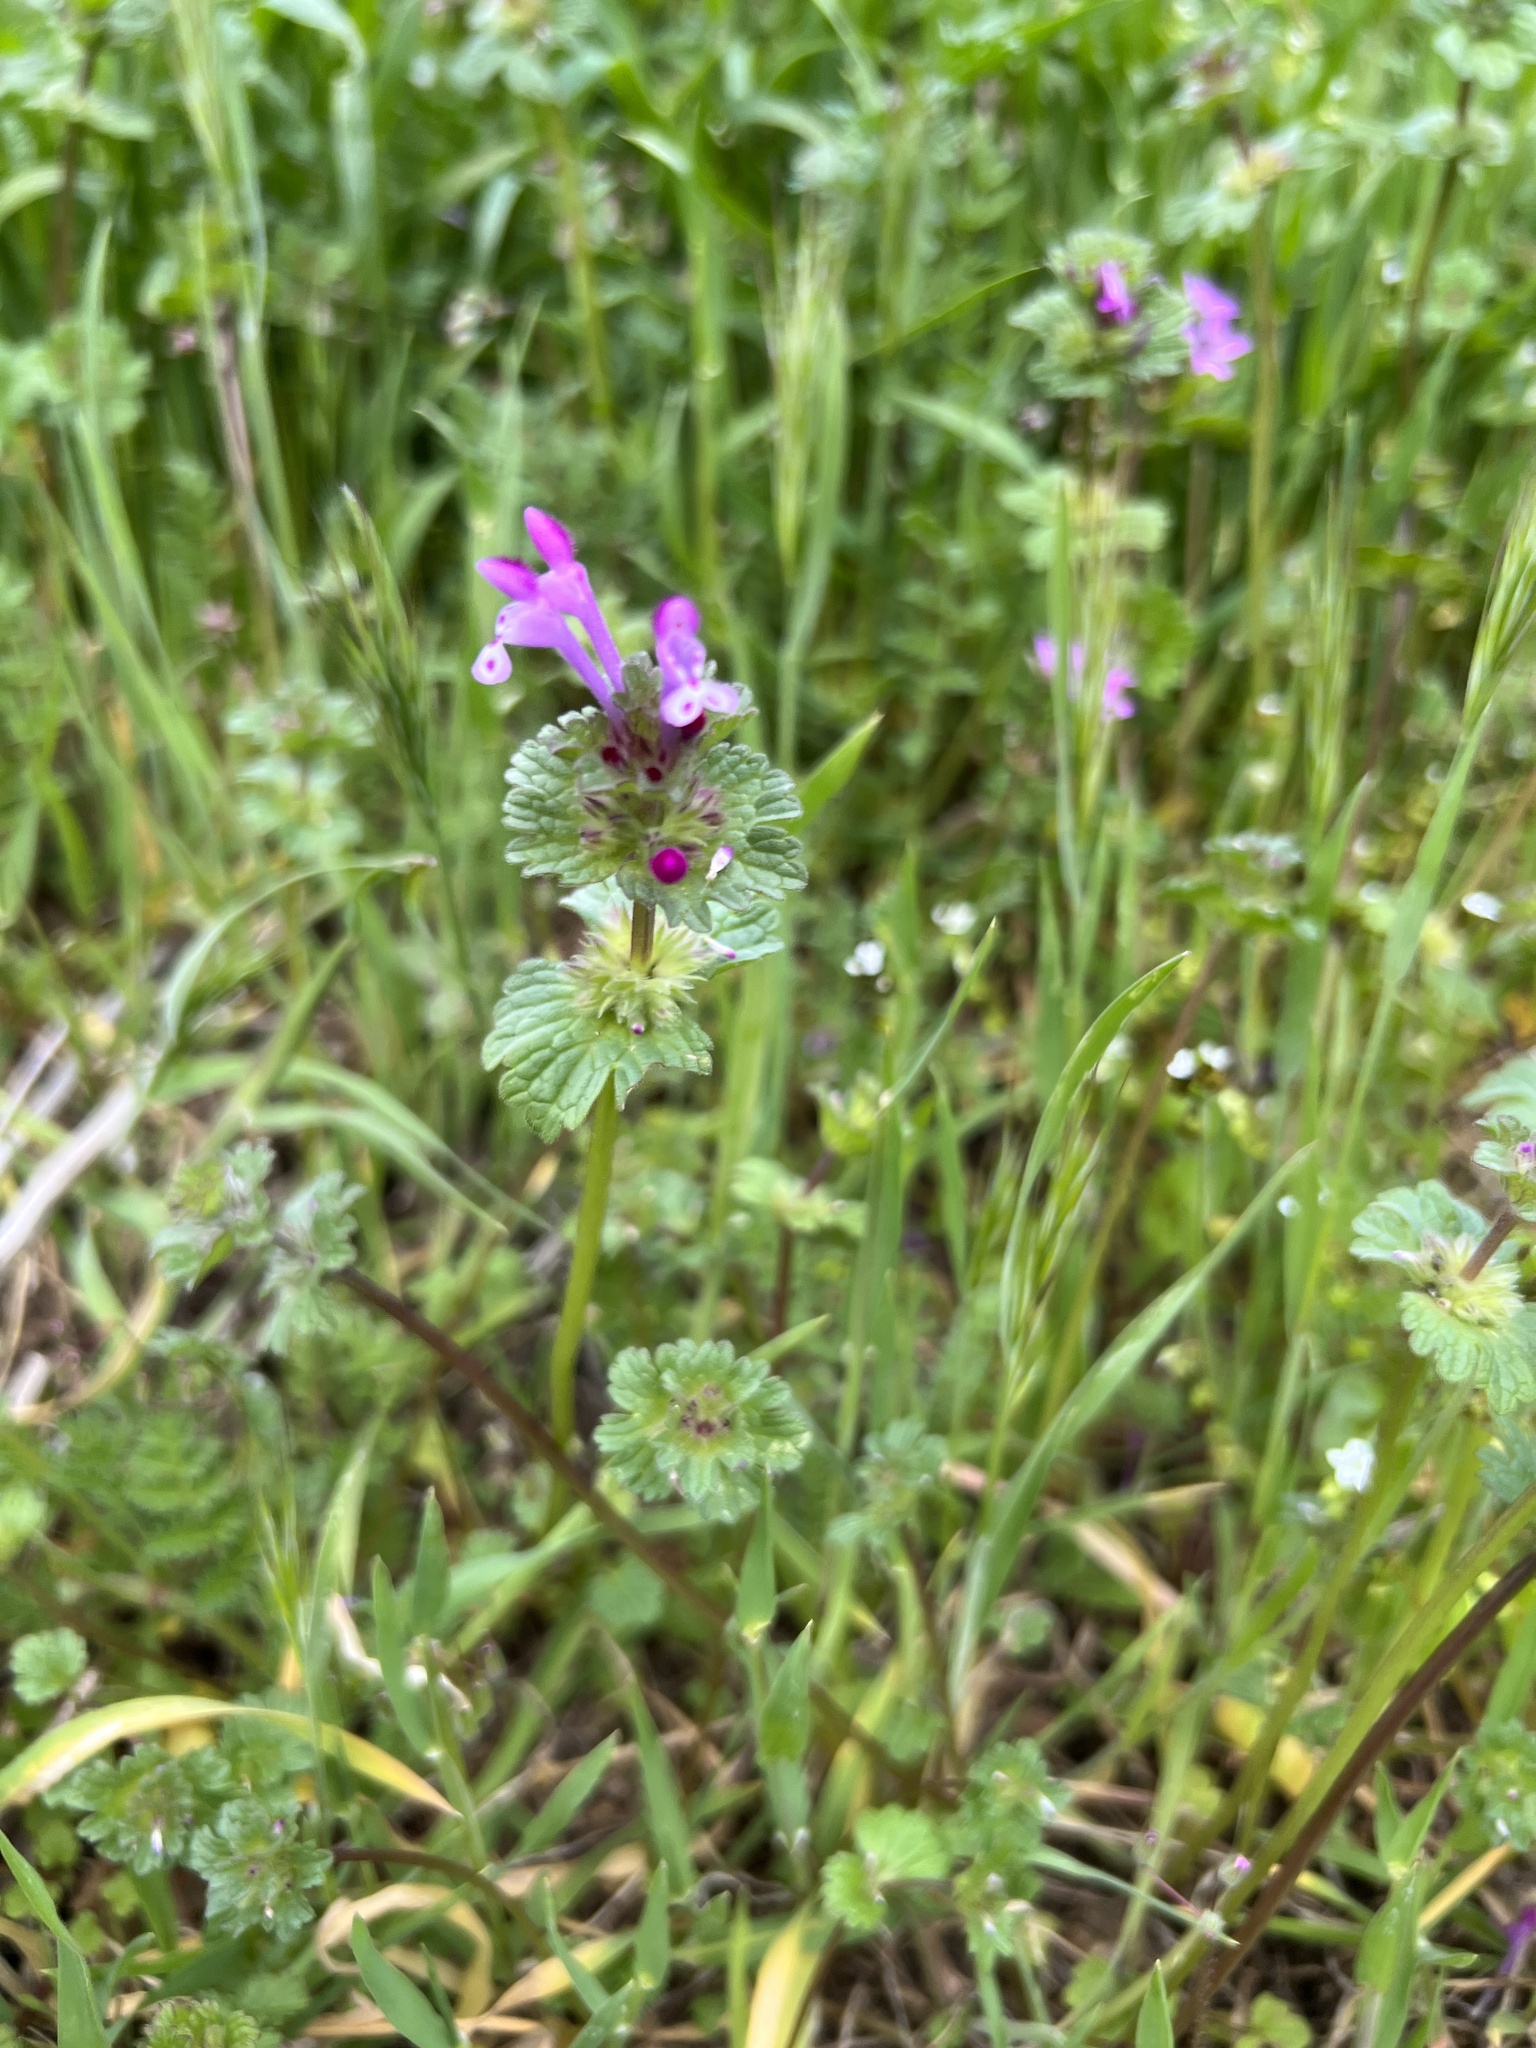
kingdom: Plantae
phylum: Tracheophyta
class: Magnoliopsida
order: Lamiales
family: Lamiaceae
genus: Lamium
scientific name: Lamium amplexicaule
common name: Henbit dead-nettle
